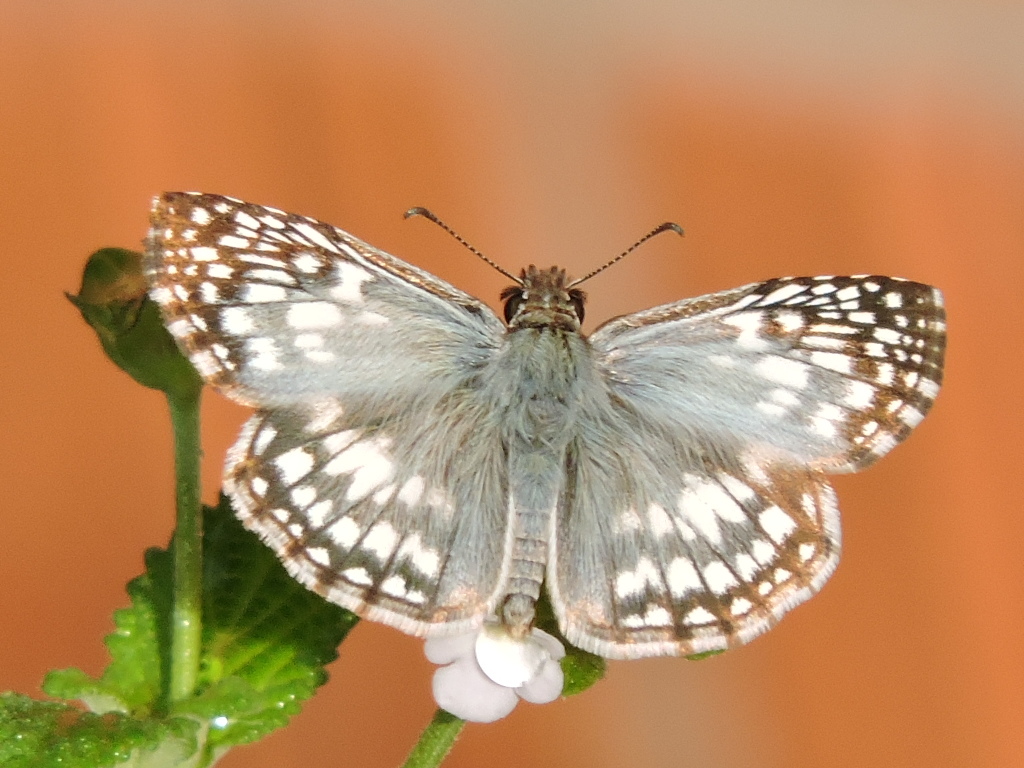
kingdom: Animalia
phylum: Arthropoda
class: Insecta
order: Lepidoptera
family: Hesperiidae
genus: Pyrgus
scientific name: Pyrgus oileus
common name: Tropical checkered-skipper
